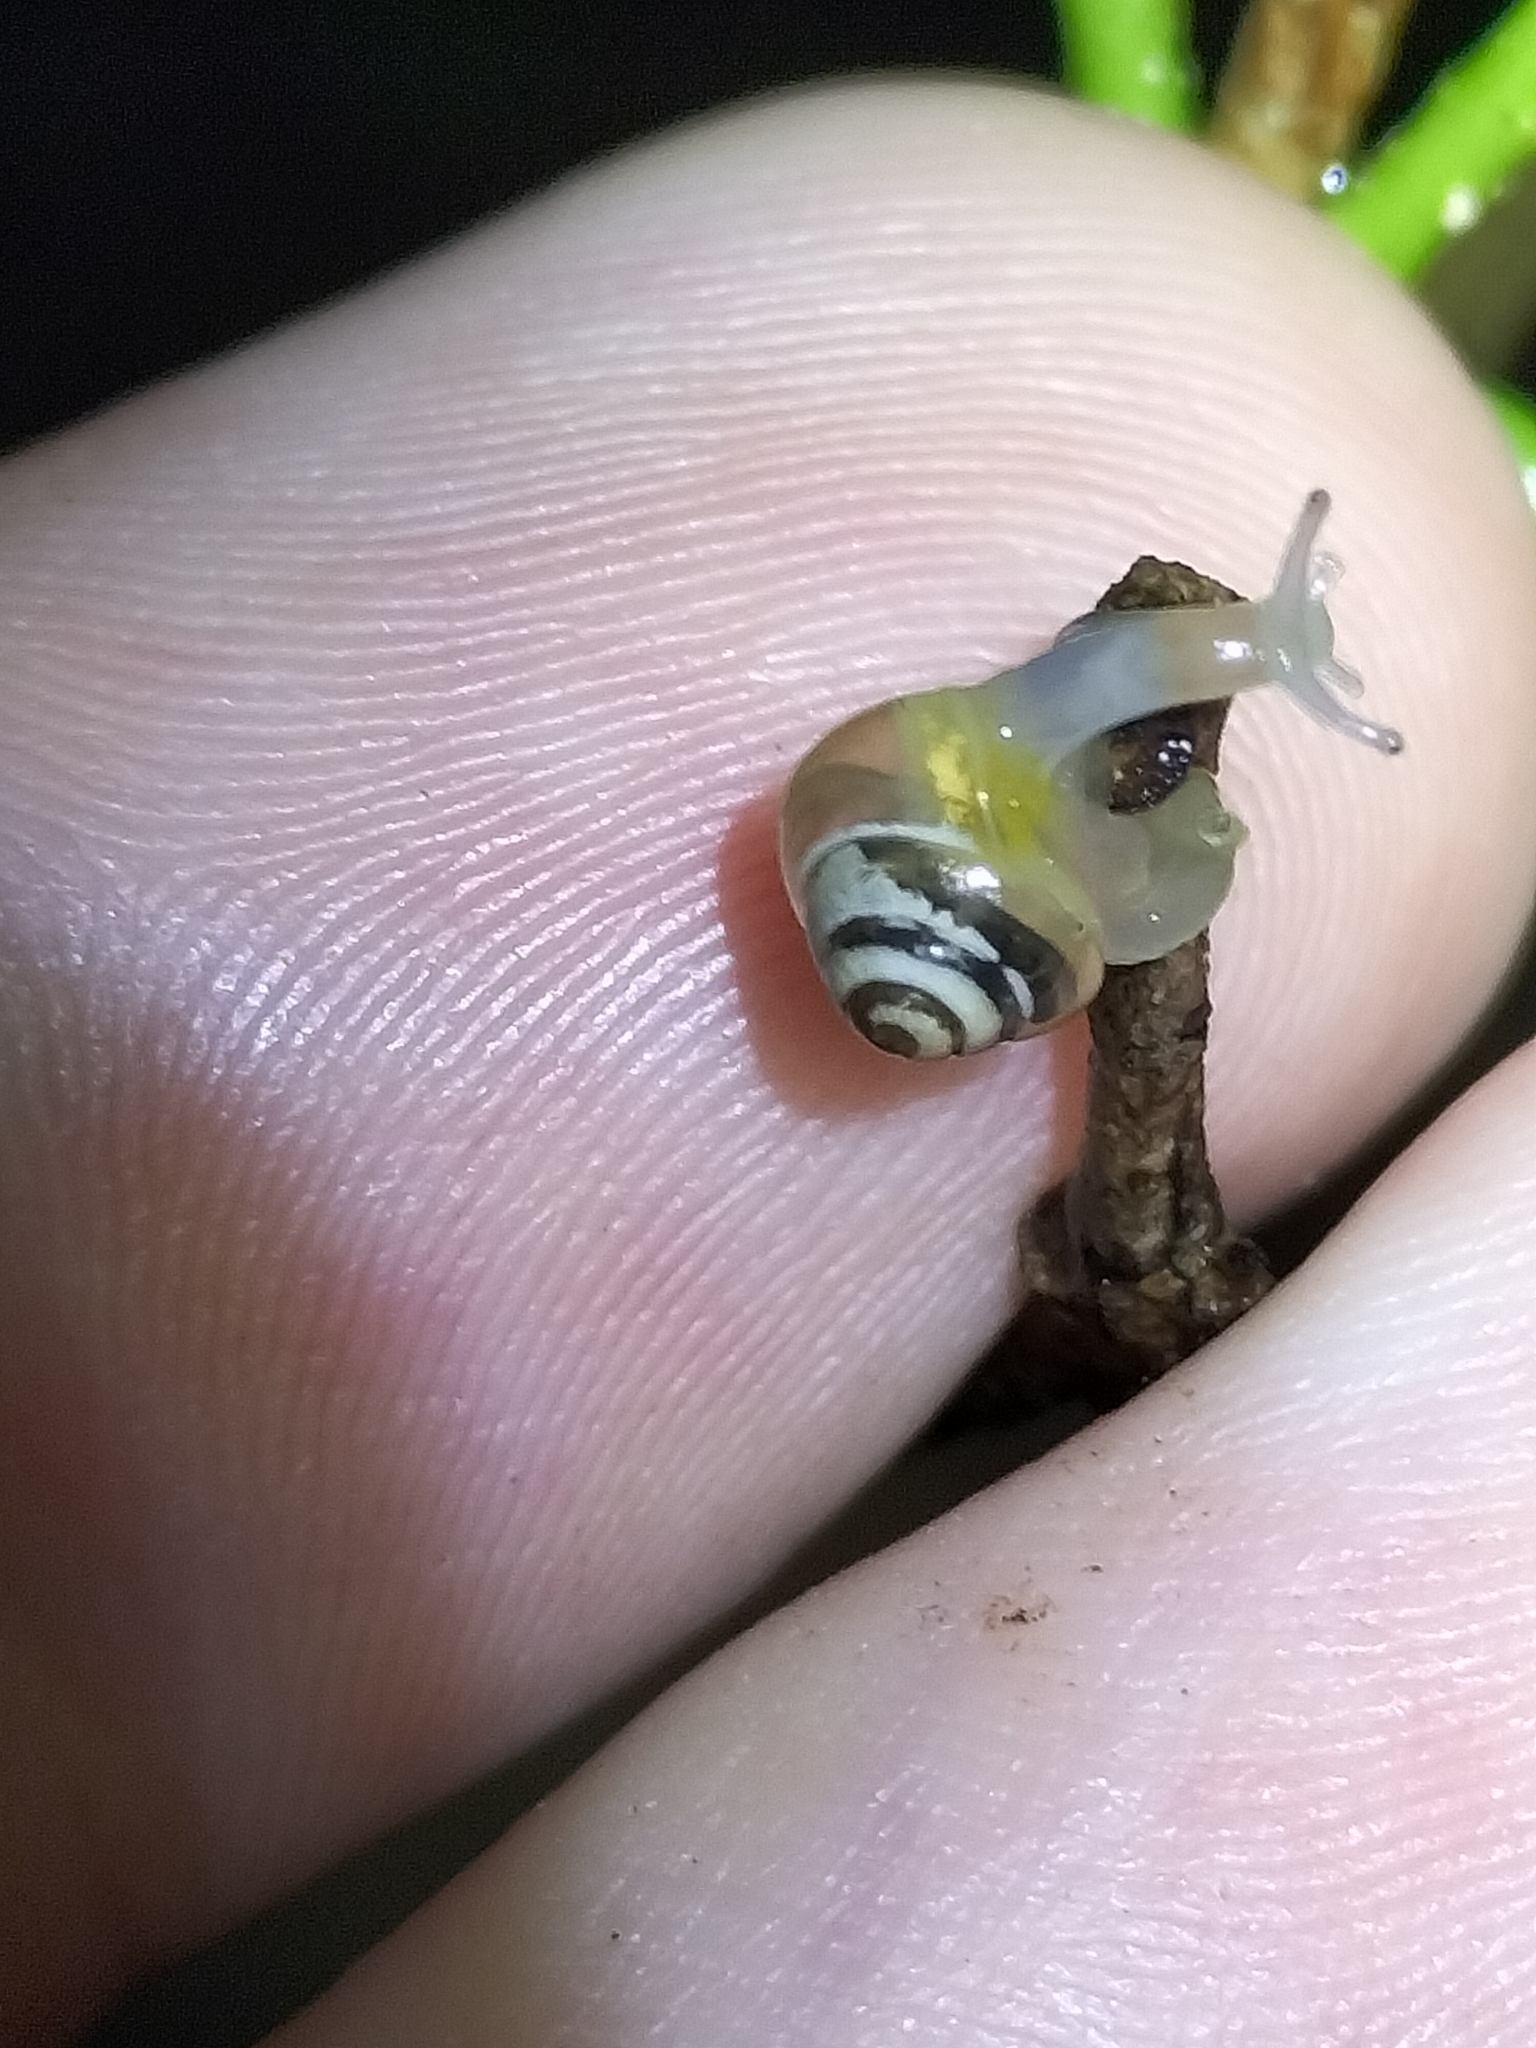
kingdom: Animalia
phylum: Mollusca
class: Gastropoda
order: Stylommatophora
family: Euconulidae
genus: Coneuplecta
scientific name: Coneuplecta pampini
